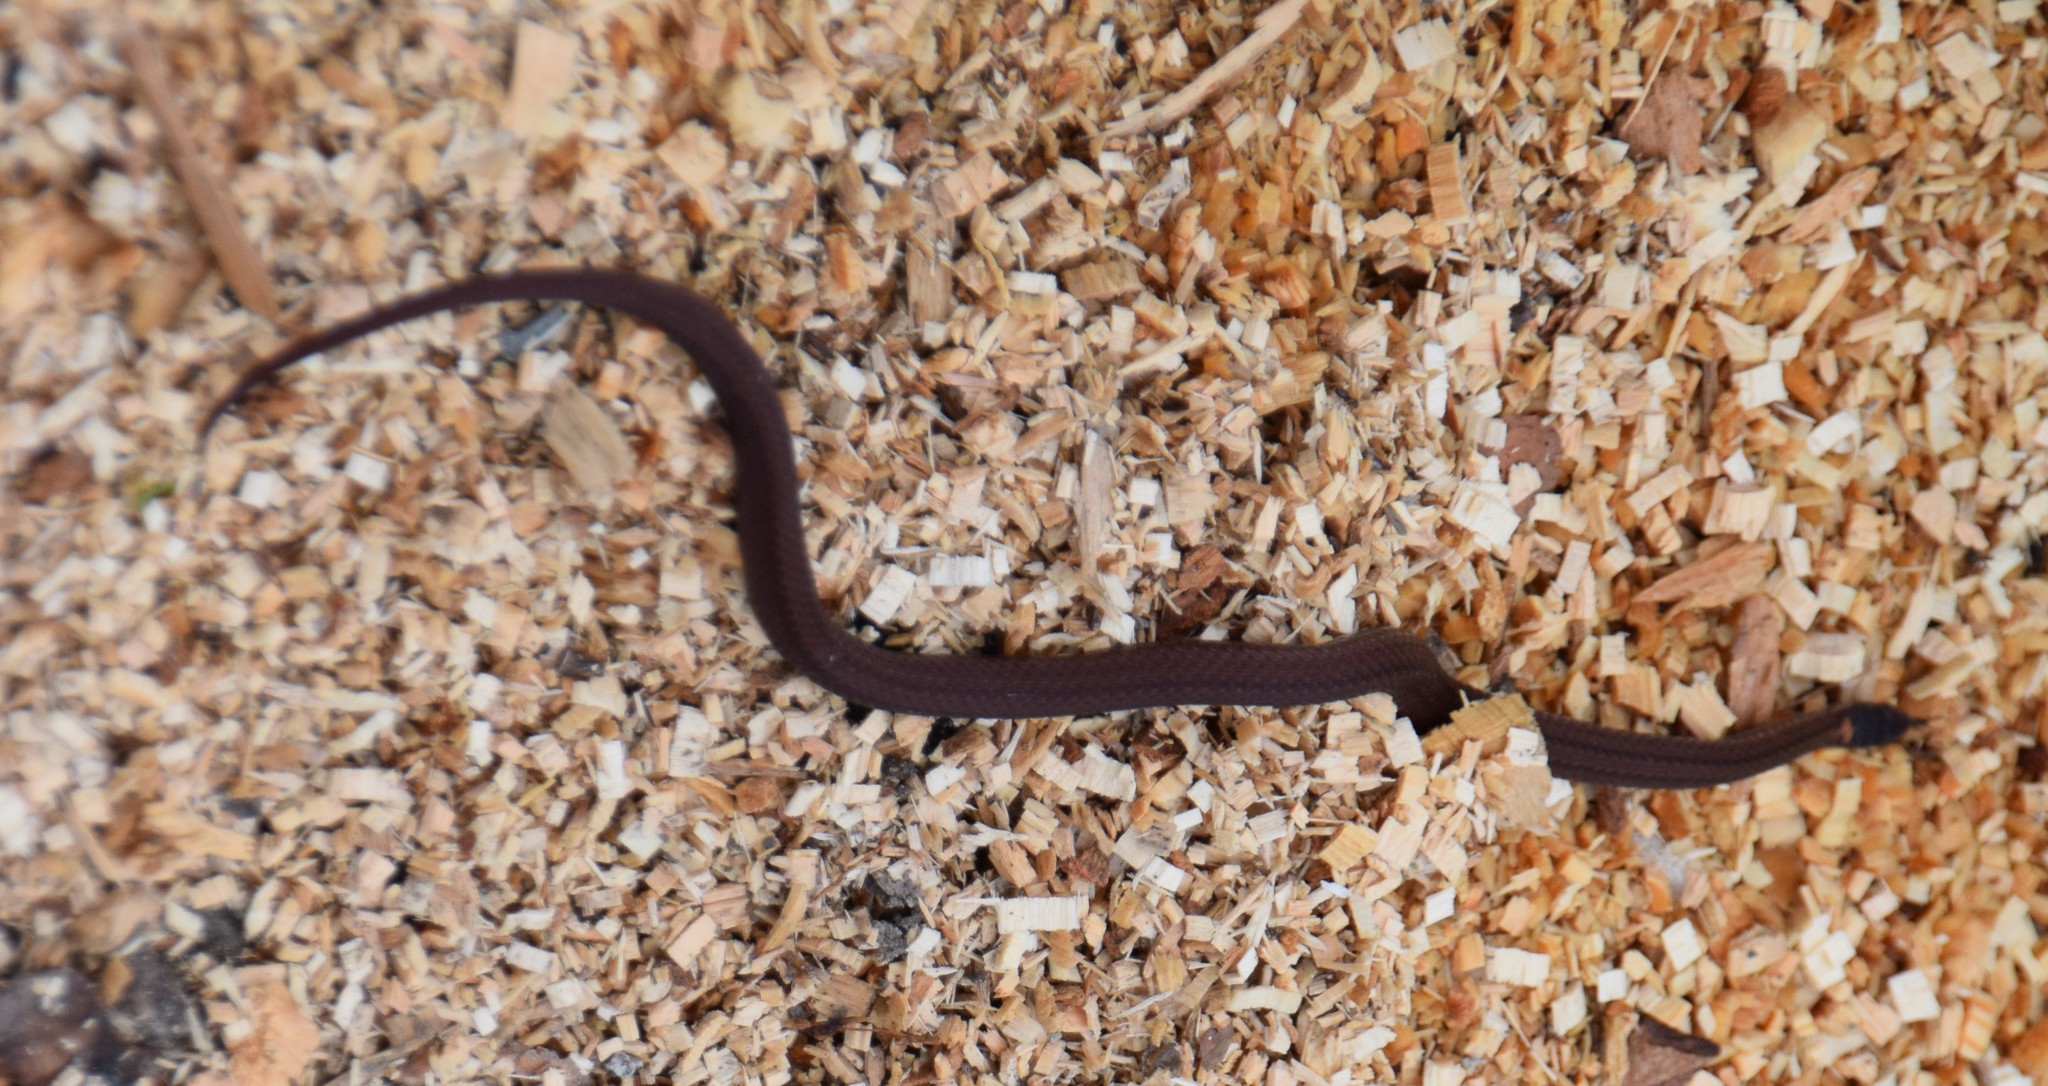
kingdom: Animalia
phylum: Chordata
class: Squamata
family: Colubridae
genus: Storeria
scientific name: Storeria occipitomaculata
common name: Redbelly snake
